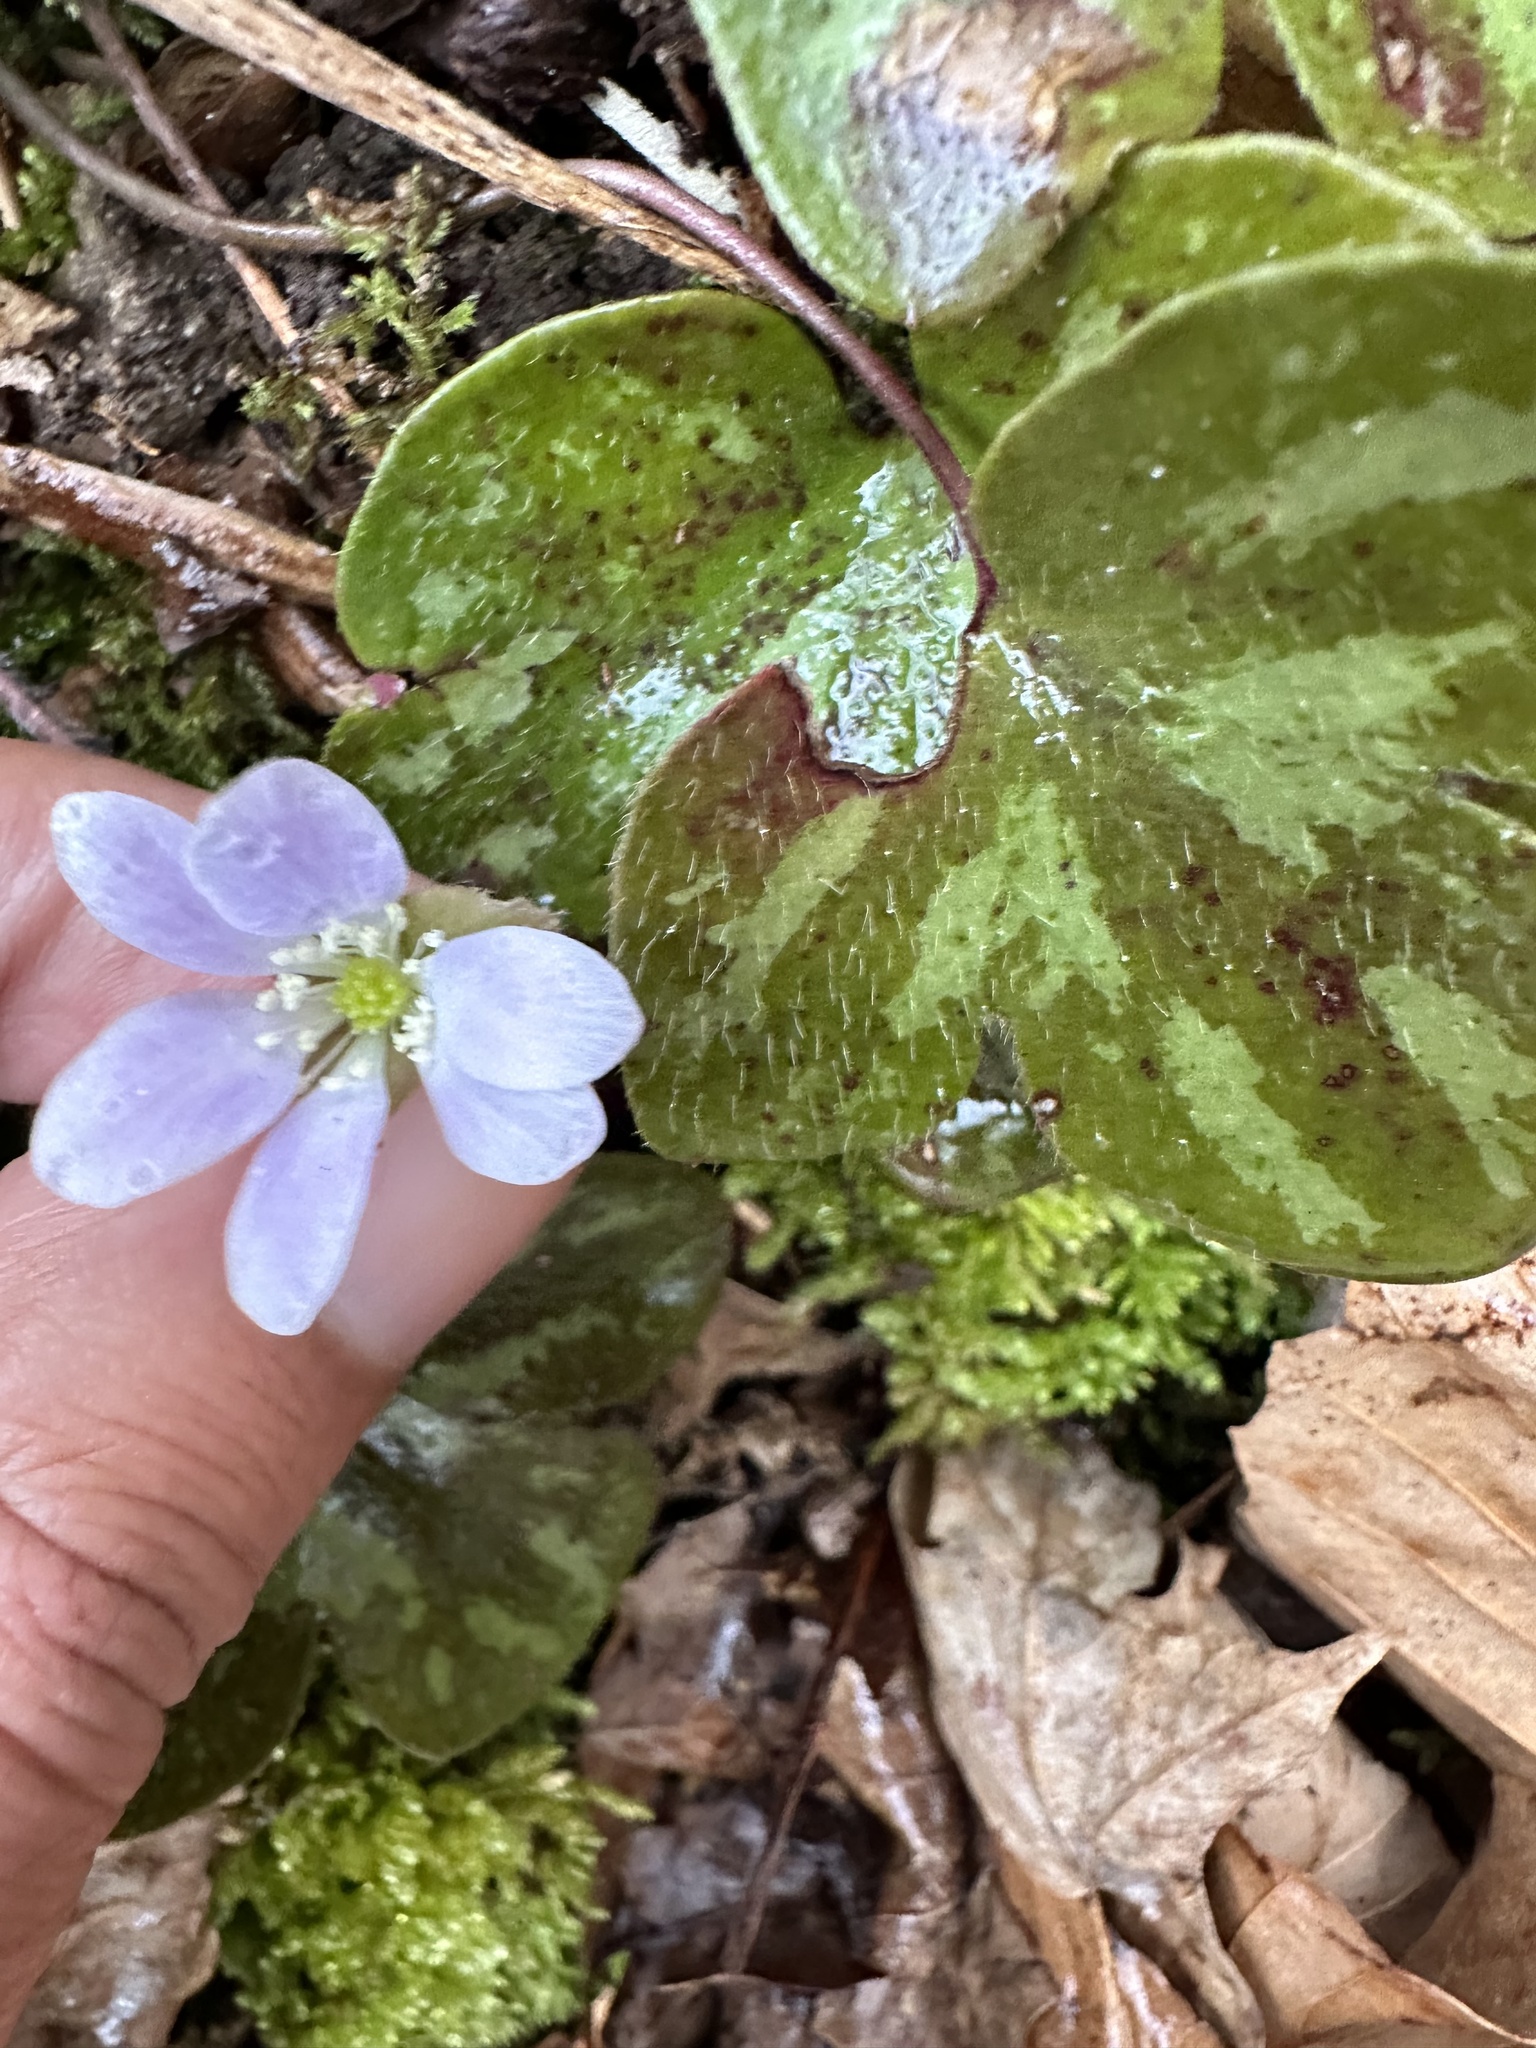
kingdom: Plantae
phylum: Tracheophyta
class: Magnoliopsida
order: Ranunculales
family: Ranunculaceae
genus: Hepatica
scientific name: Hepatica americana
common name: American hepatica
